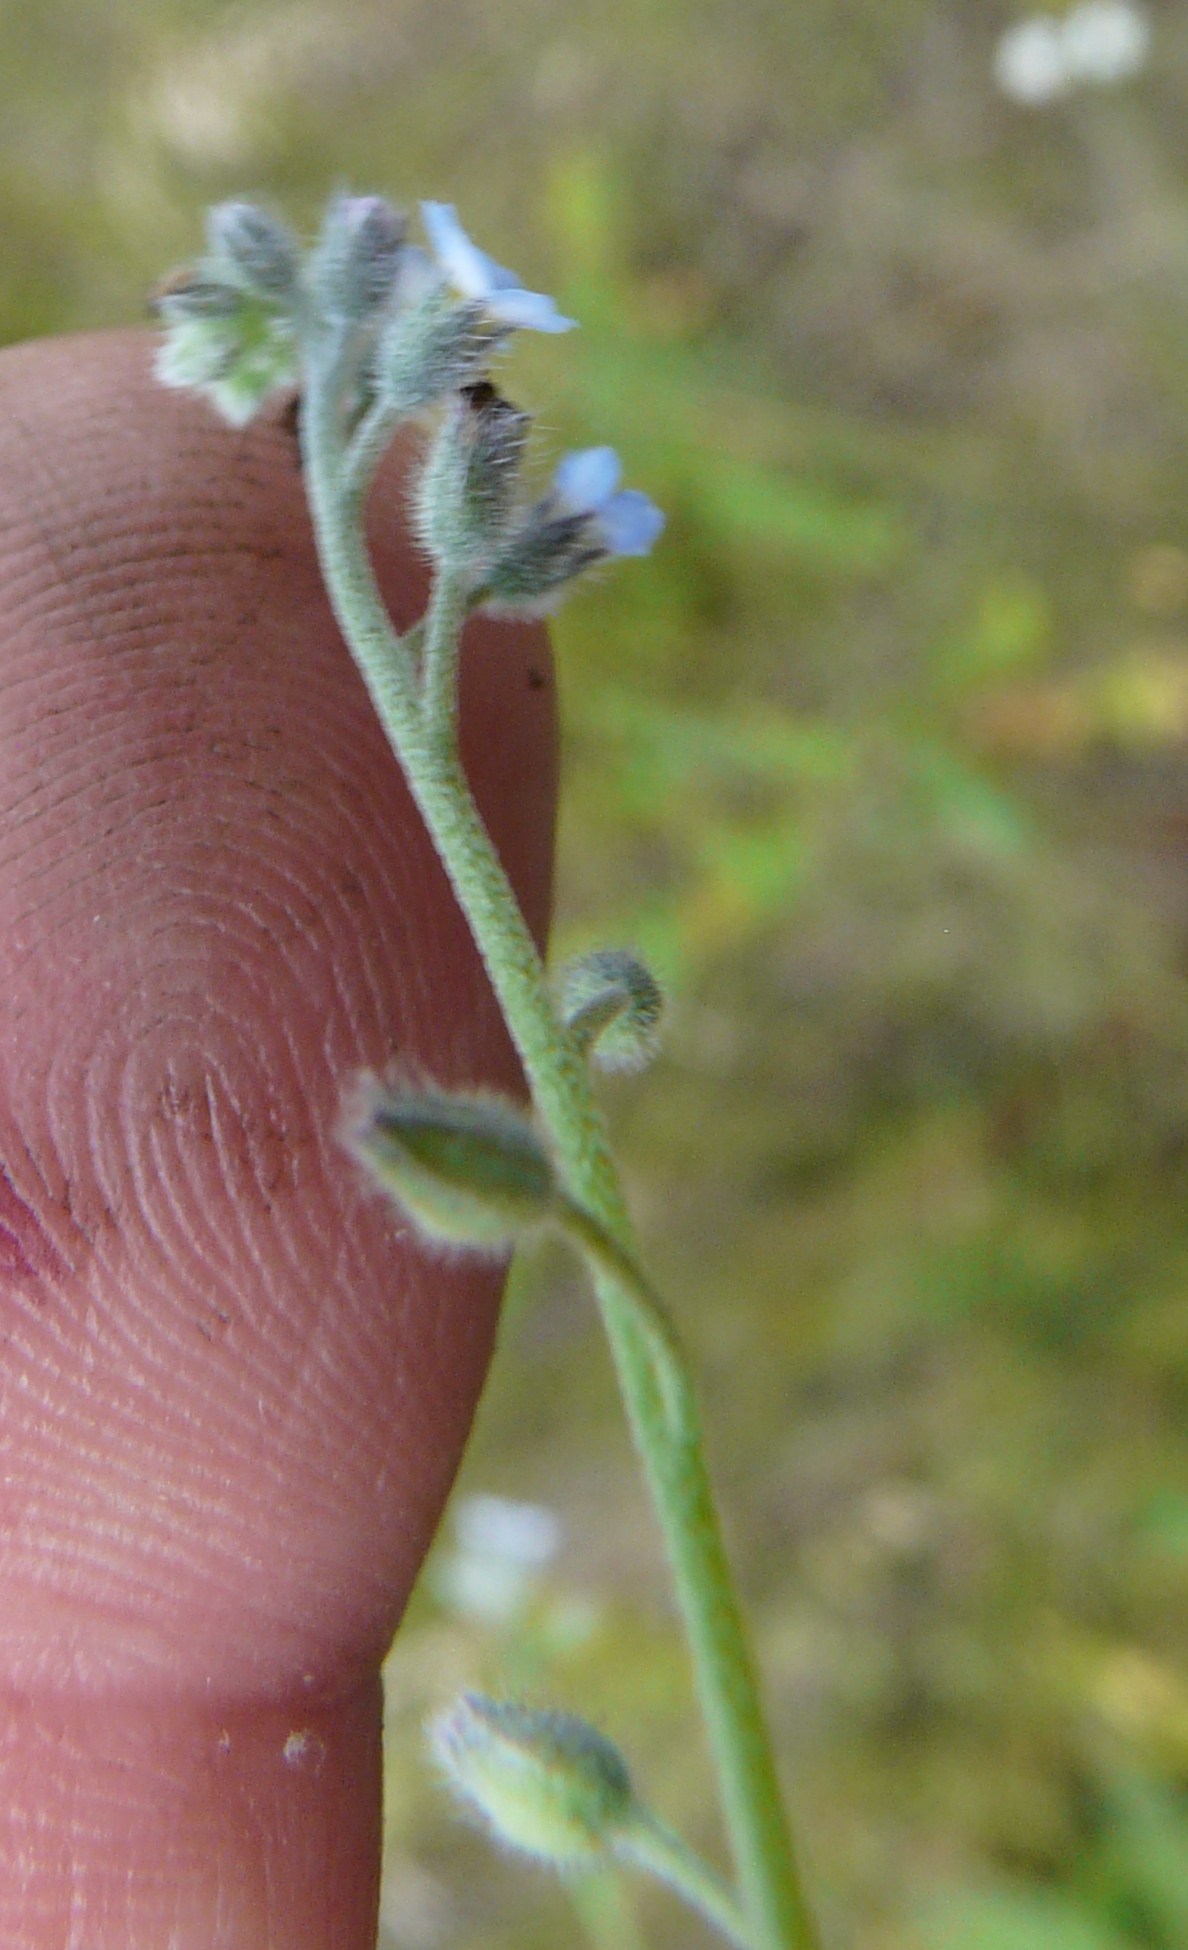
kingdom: Plantae
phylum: Tracheophyta
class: Magnoliopsida
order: Boraginales
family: Boraginaceae
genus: Myosotis
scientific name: Myosotis arvensis
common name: Field forget-me-not
